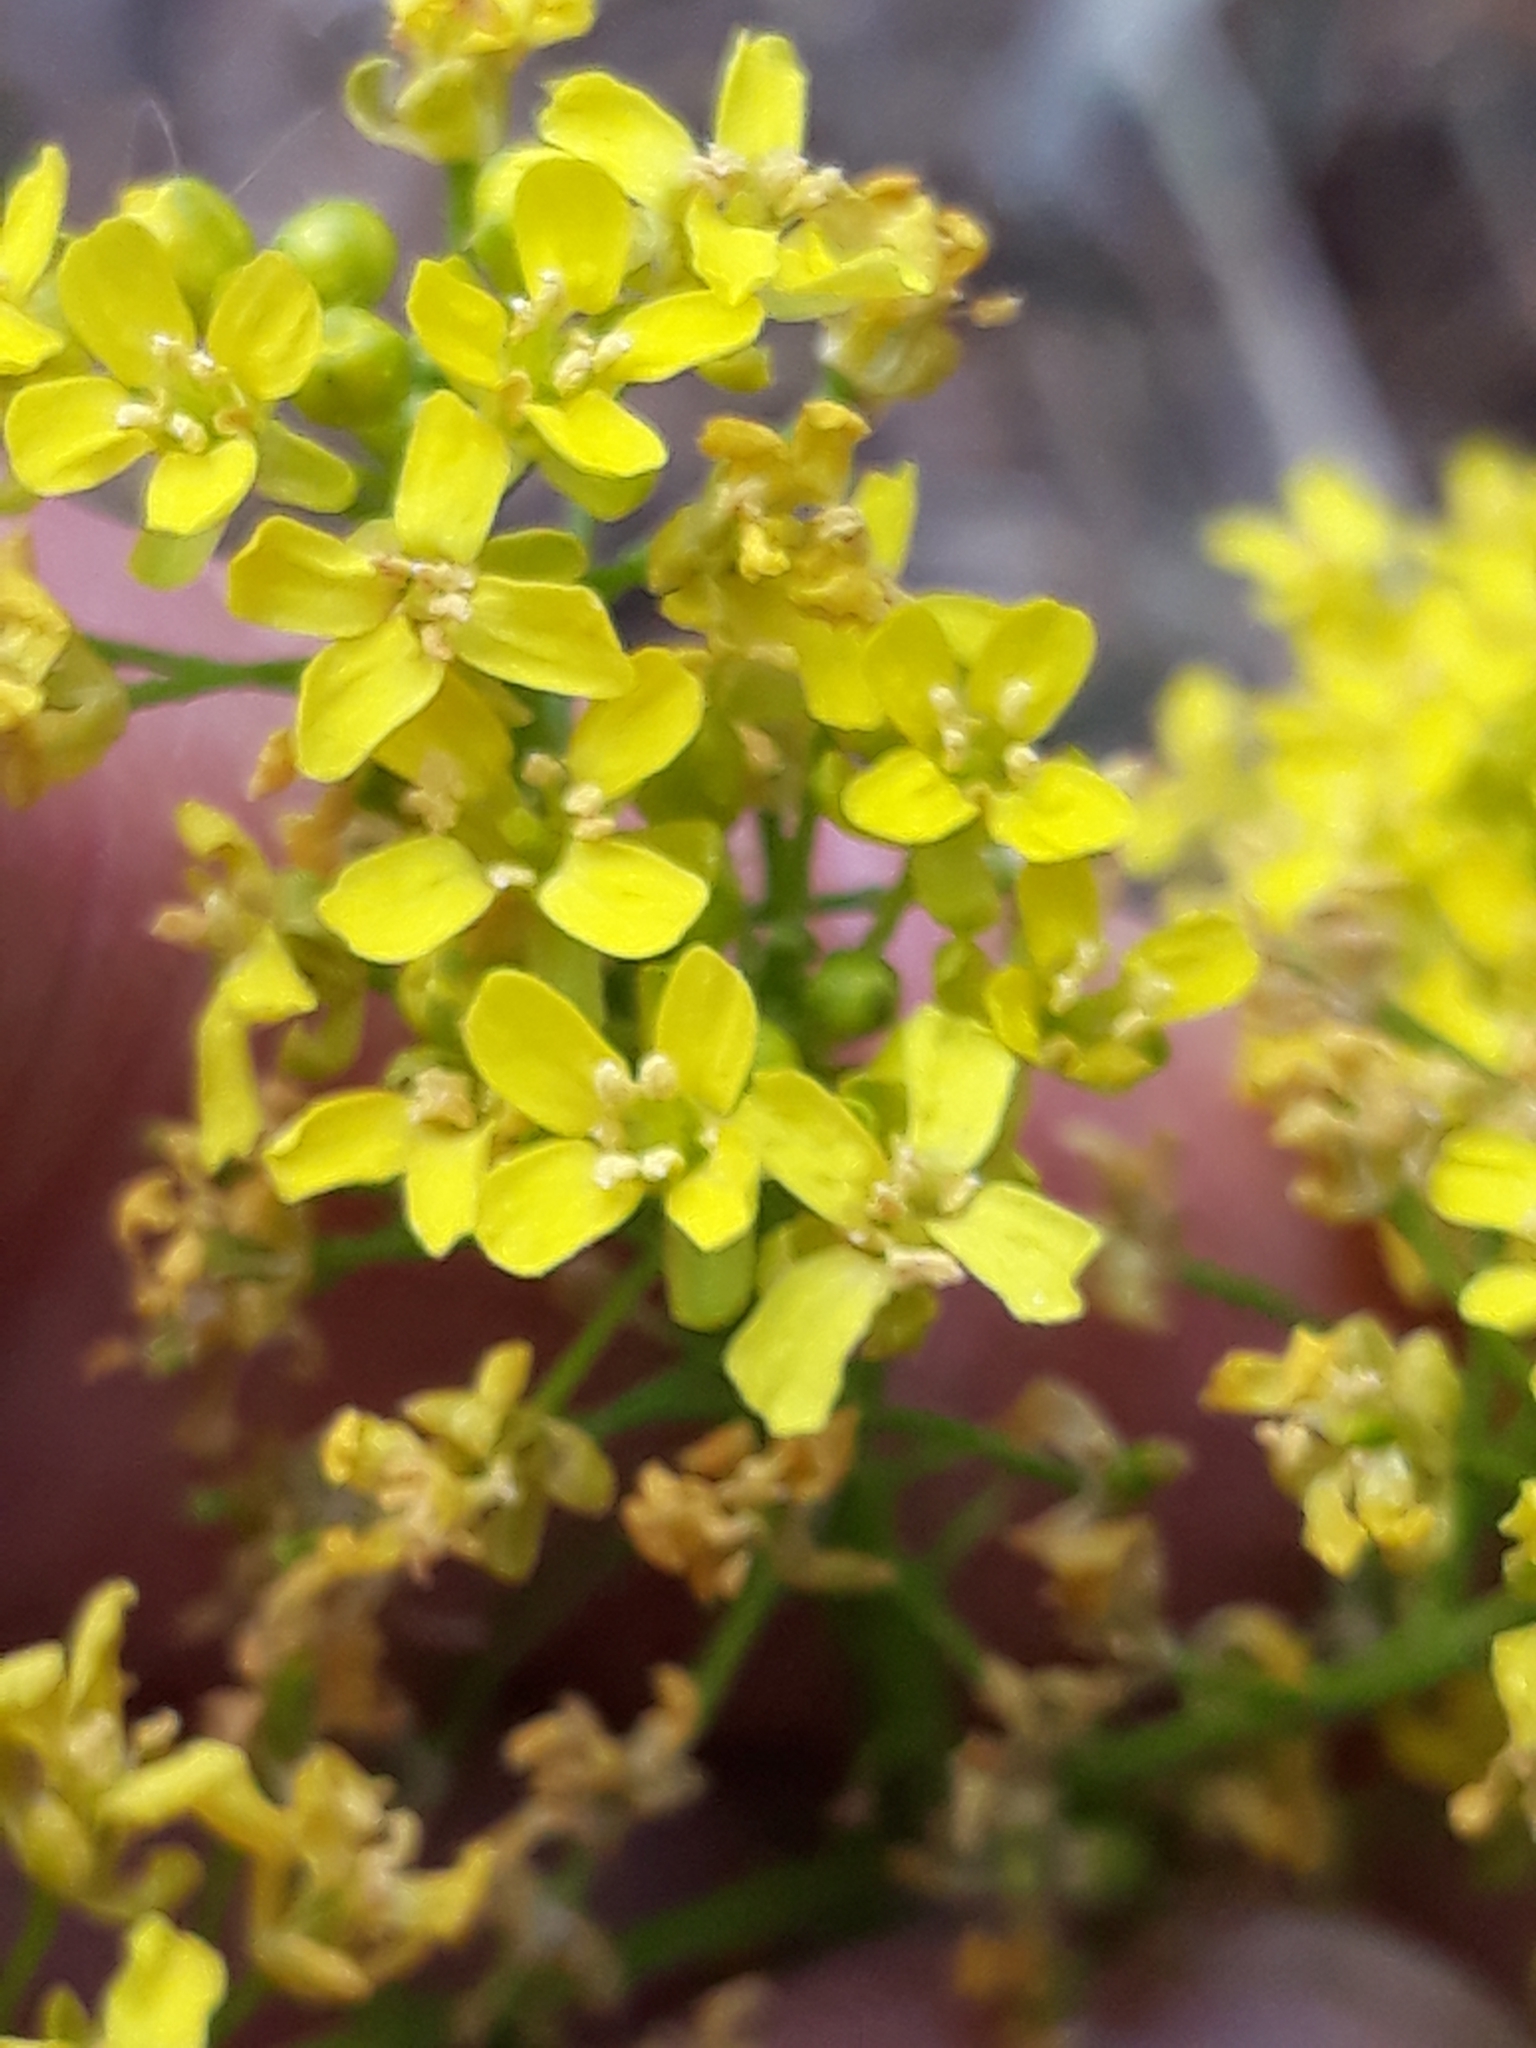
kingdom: Plantae
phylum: Tracheophyta
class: Magnoliopsida
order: Brassicales
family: Brassicaceae
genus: Bunias
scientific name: Bunias orientalis
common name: Warty-cabbage
